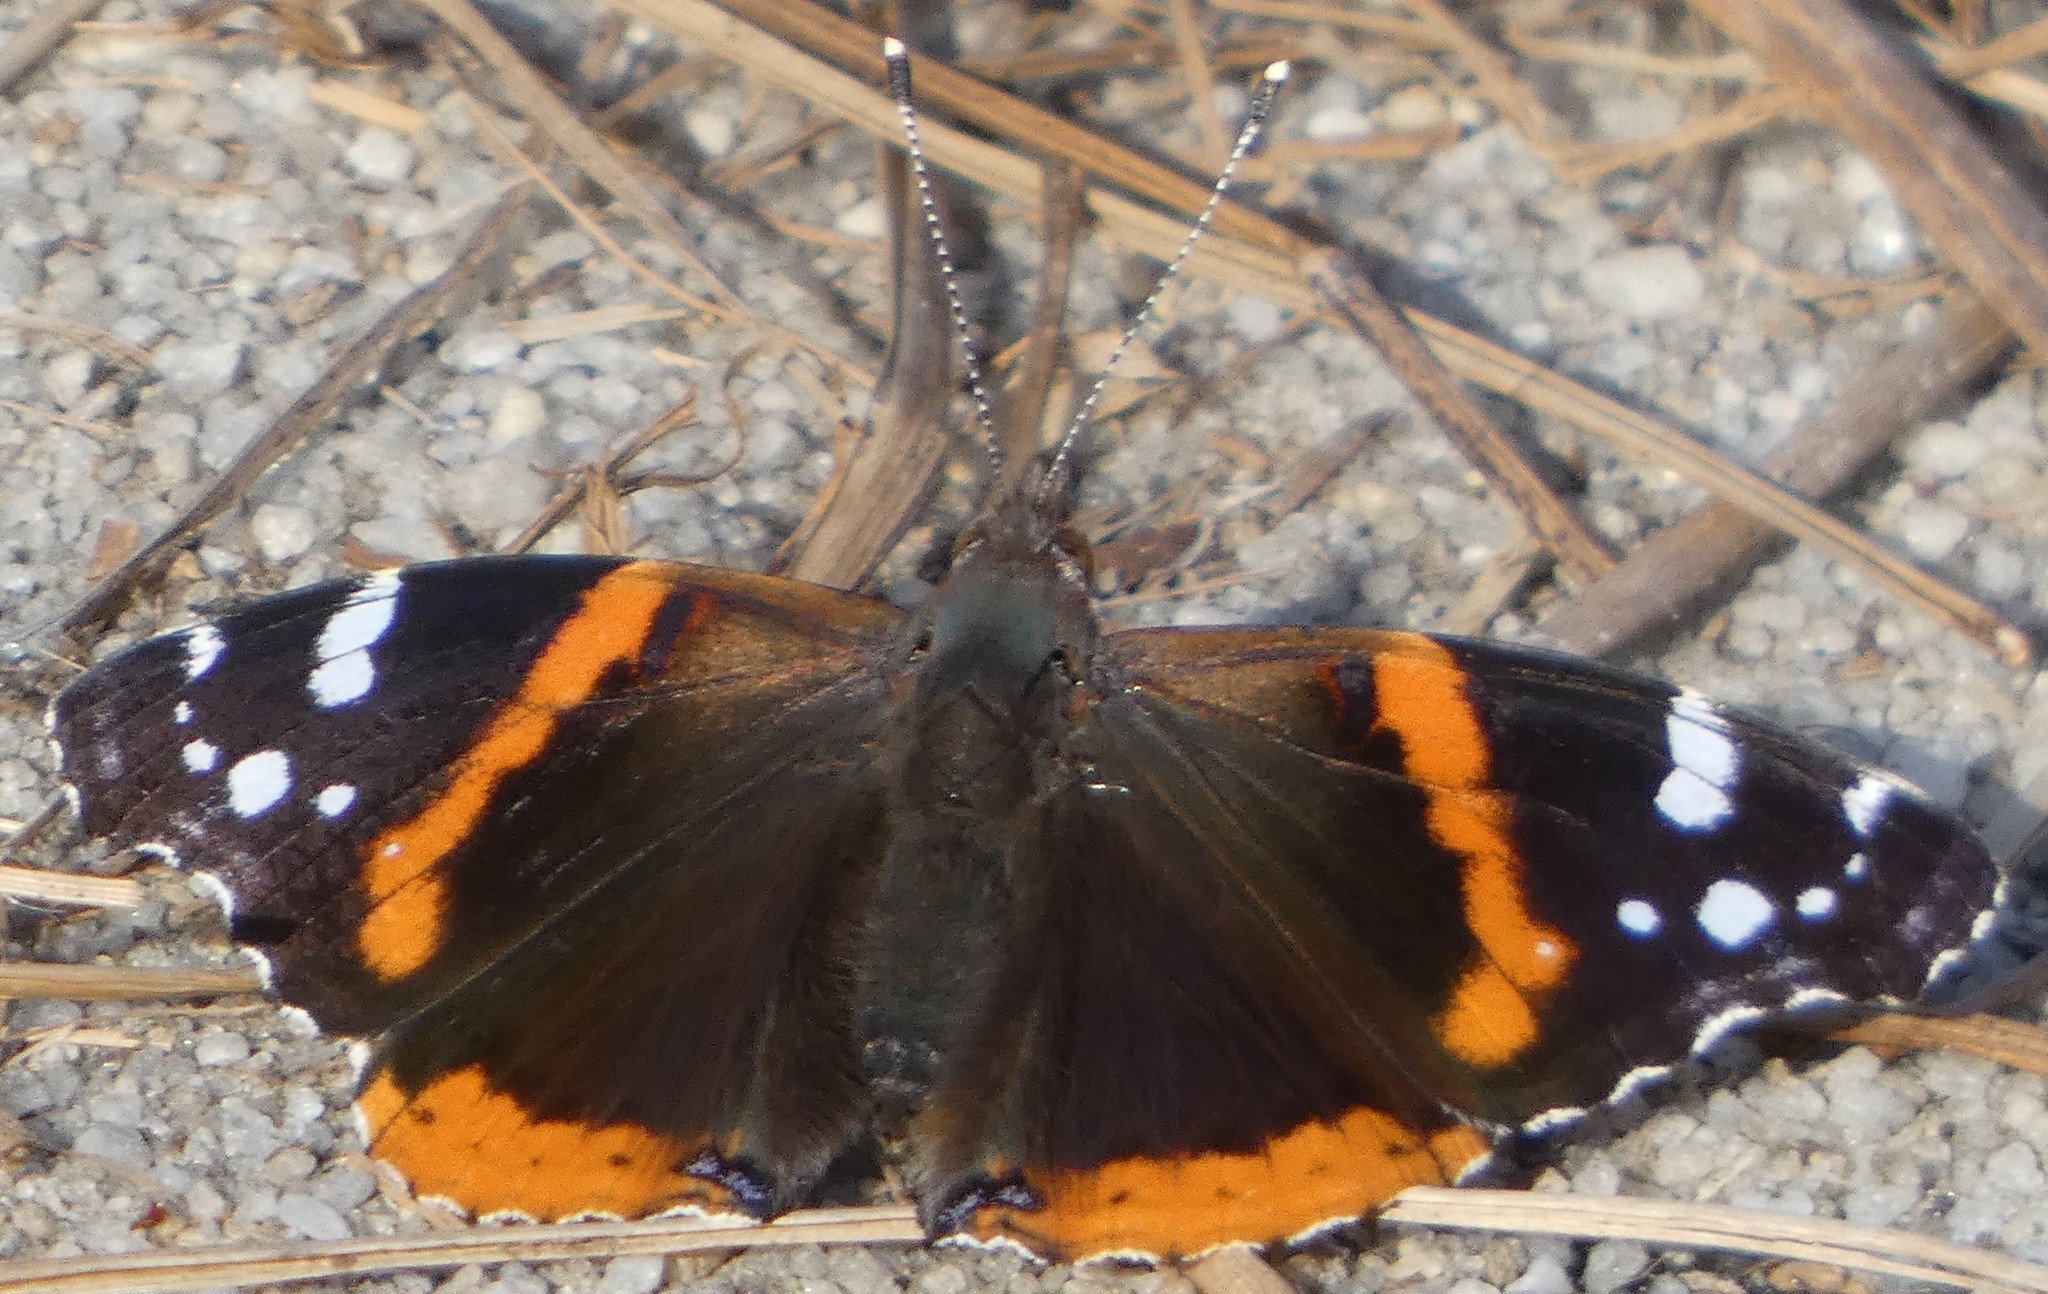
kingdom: Animalia
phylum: Arthropoda
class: Insecta
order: Lepidoptera
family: Nymphalidae
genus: Vanessa
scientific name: Vanessa atalanta
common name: Red admiral
